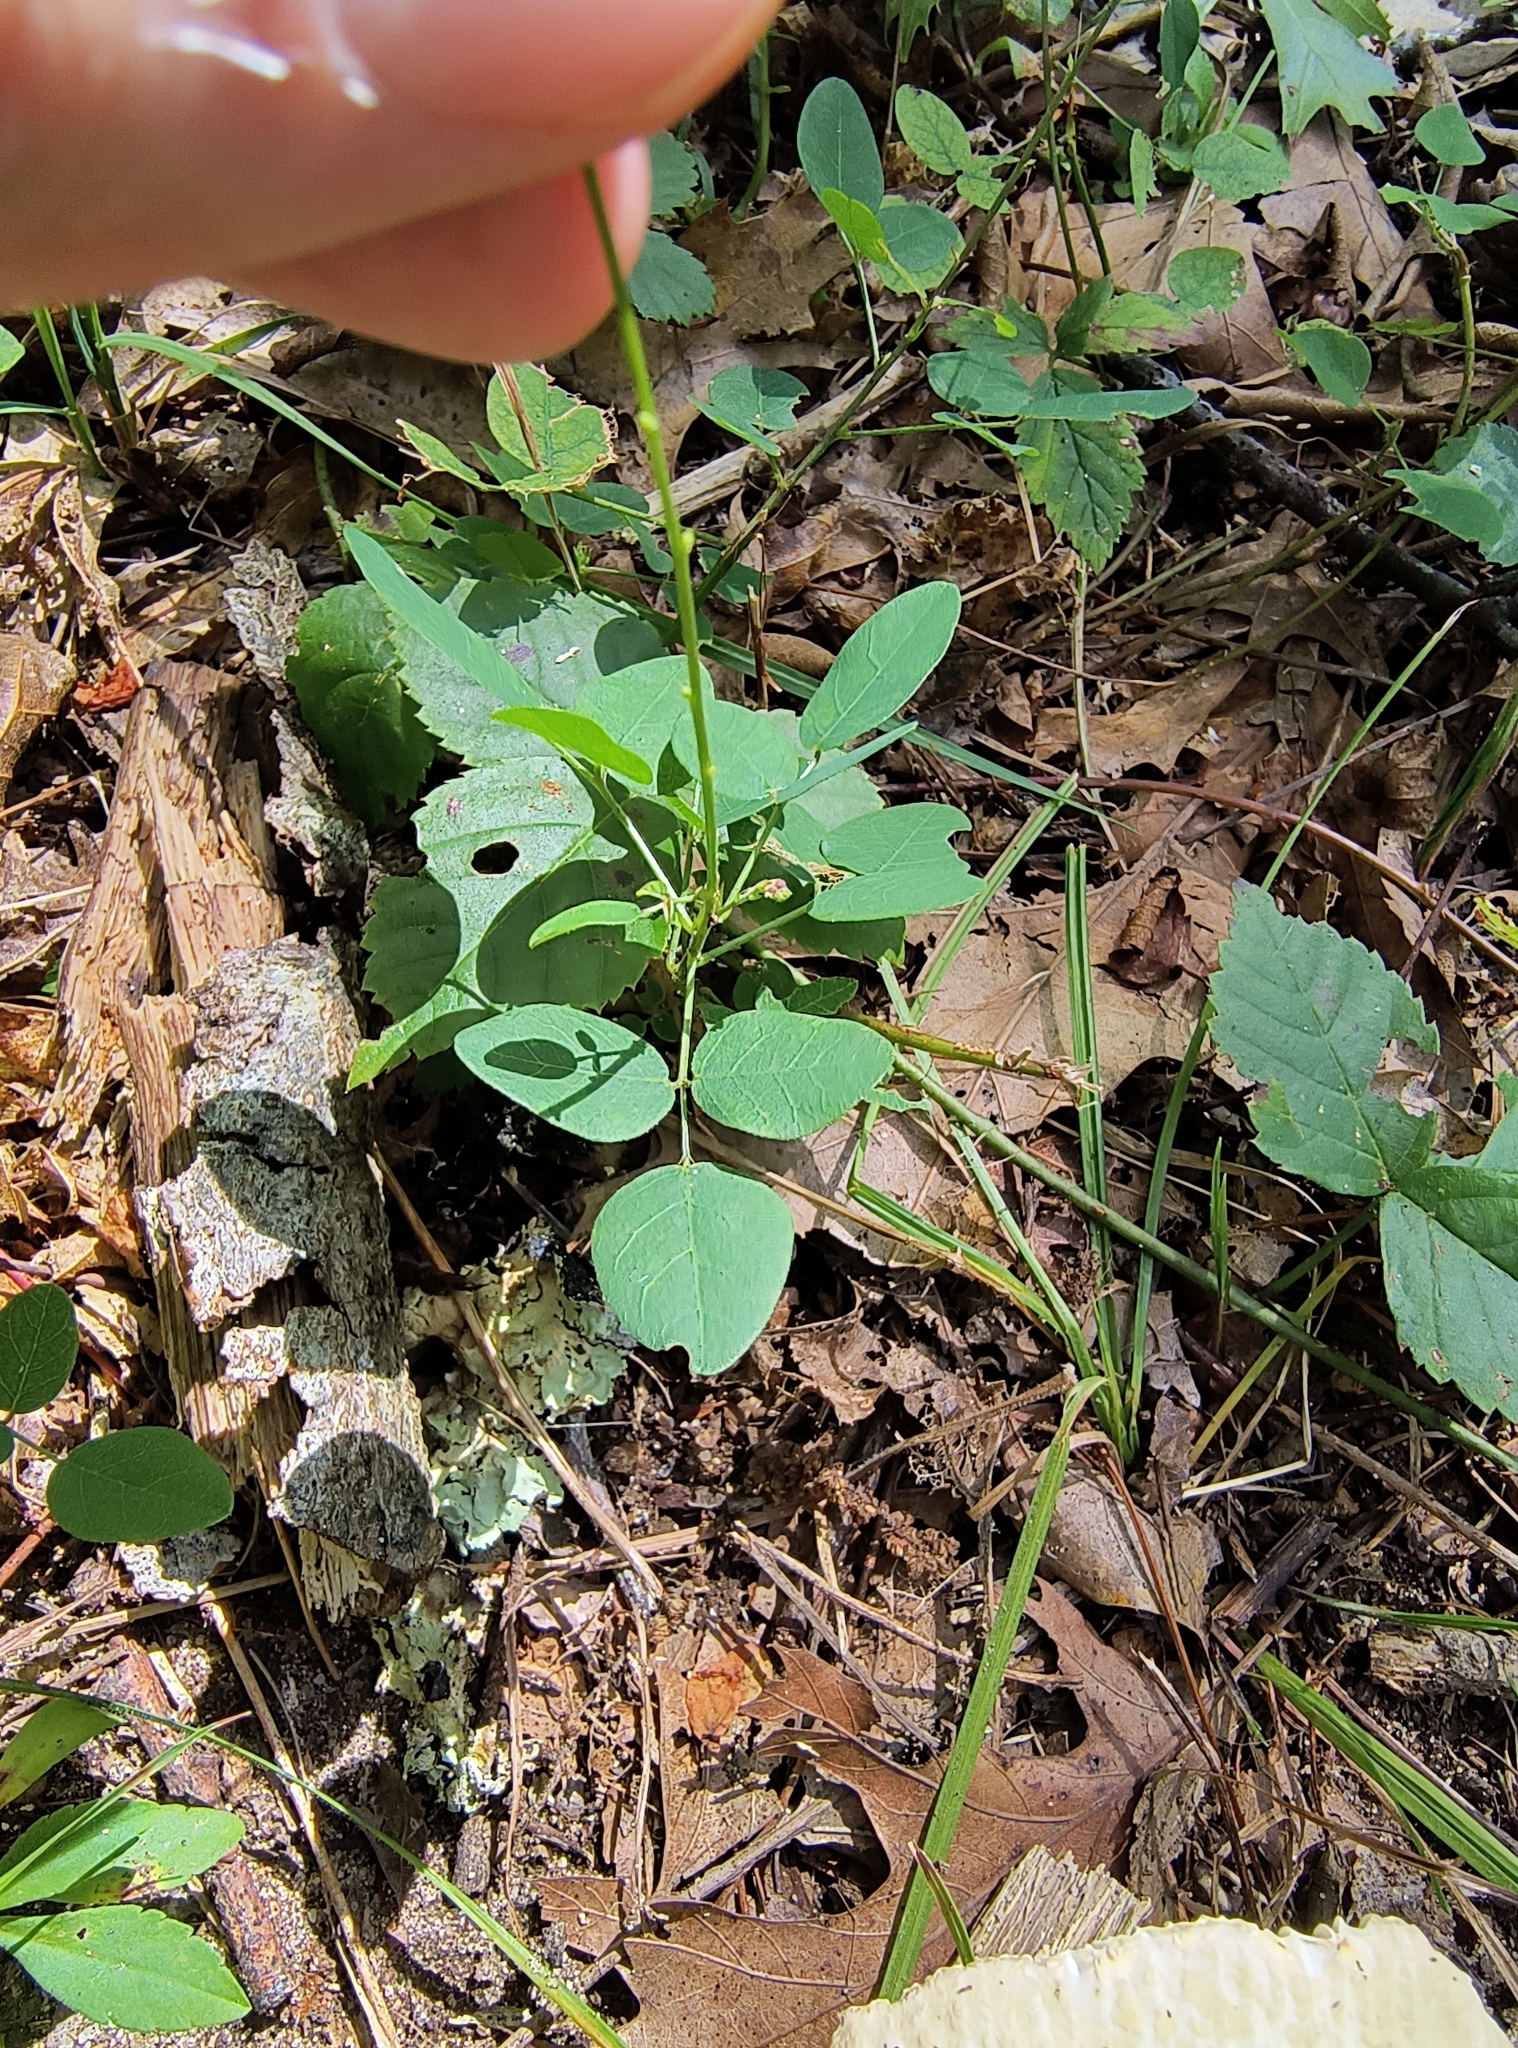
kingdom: Plantae
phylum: Tracheophyta
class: Magnoliopsida
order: Fabales
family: Fabaceae
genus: Desmodium
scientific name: Desmodium marilandicum
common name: Maryland tick-trefoil
